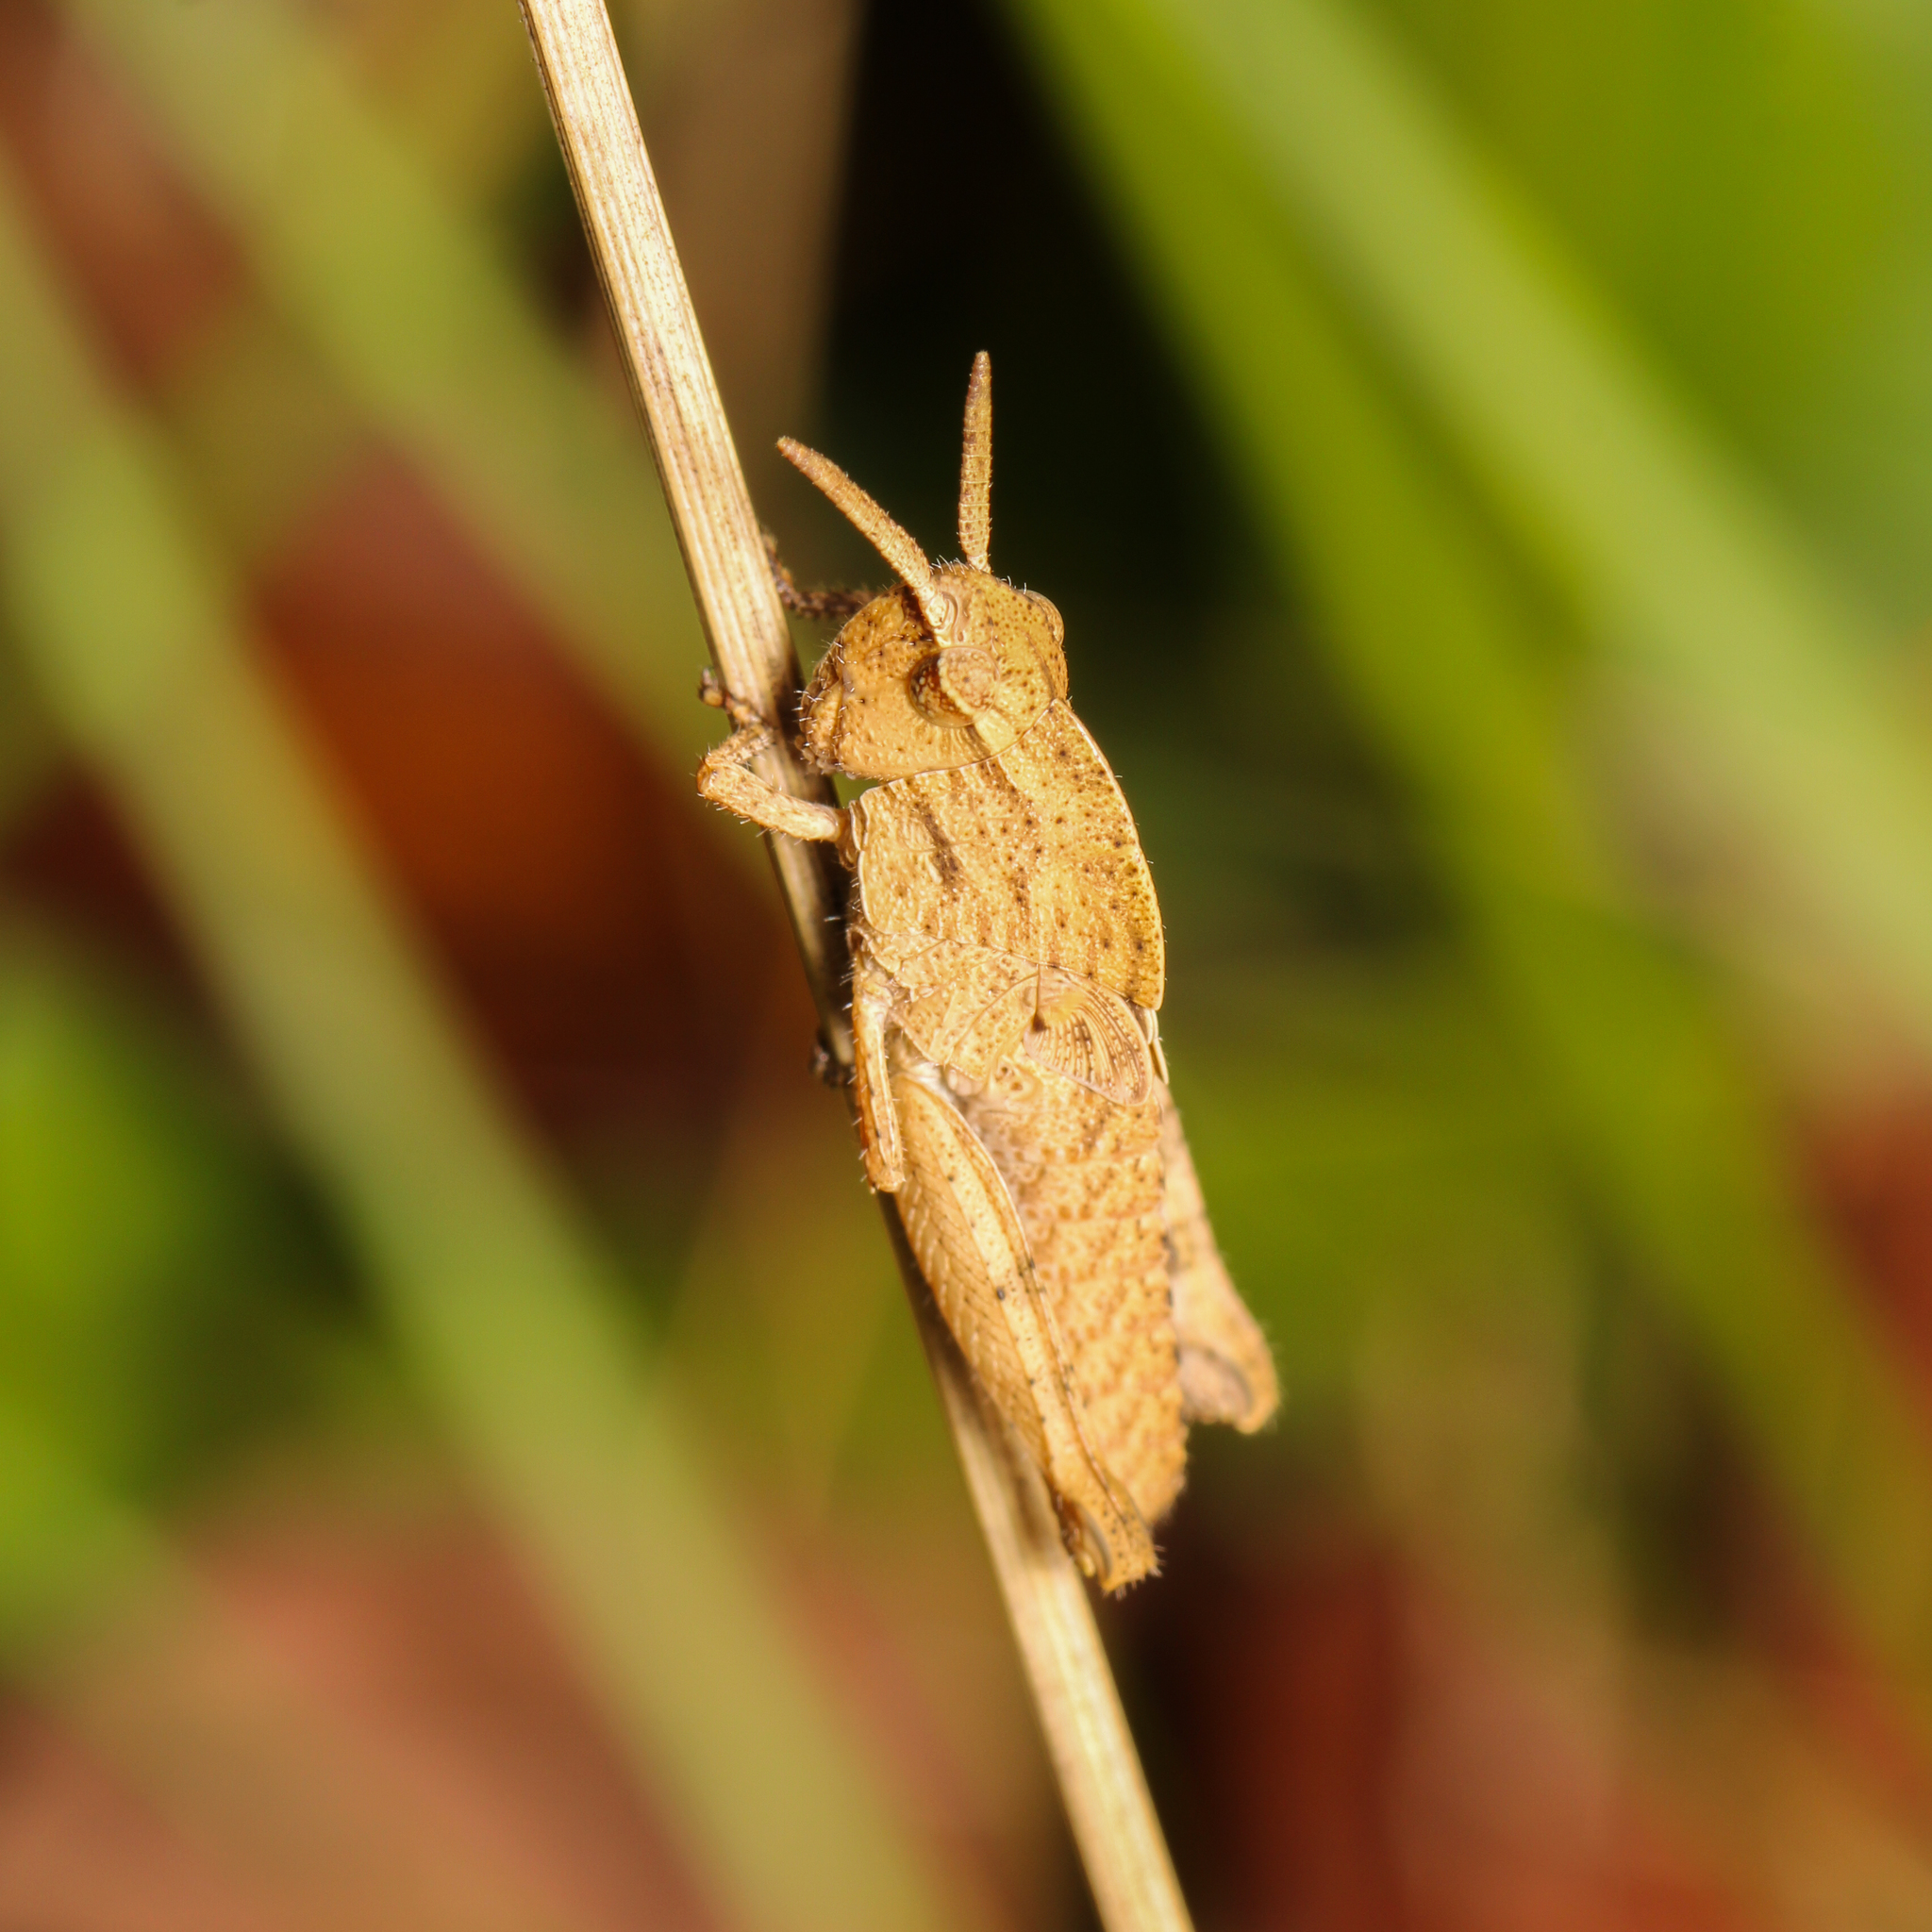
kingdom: Animalia
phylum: Arthropoda
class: Insecta
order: Orthoptera
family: Acrididae
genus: Chortophaga
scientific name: Chortophaga viridifasciata
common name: Green-striped grasshopper
